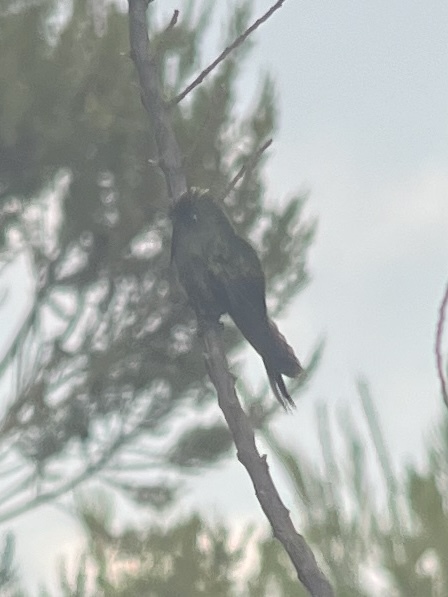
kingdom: Animalia
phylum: Chordata
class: Aves
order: Apodiformes
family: Trochilidae
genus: Chalcostigma
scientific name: Chalcostigma herrani
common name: Rainbow-bearded thornbill
